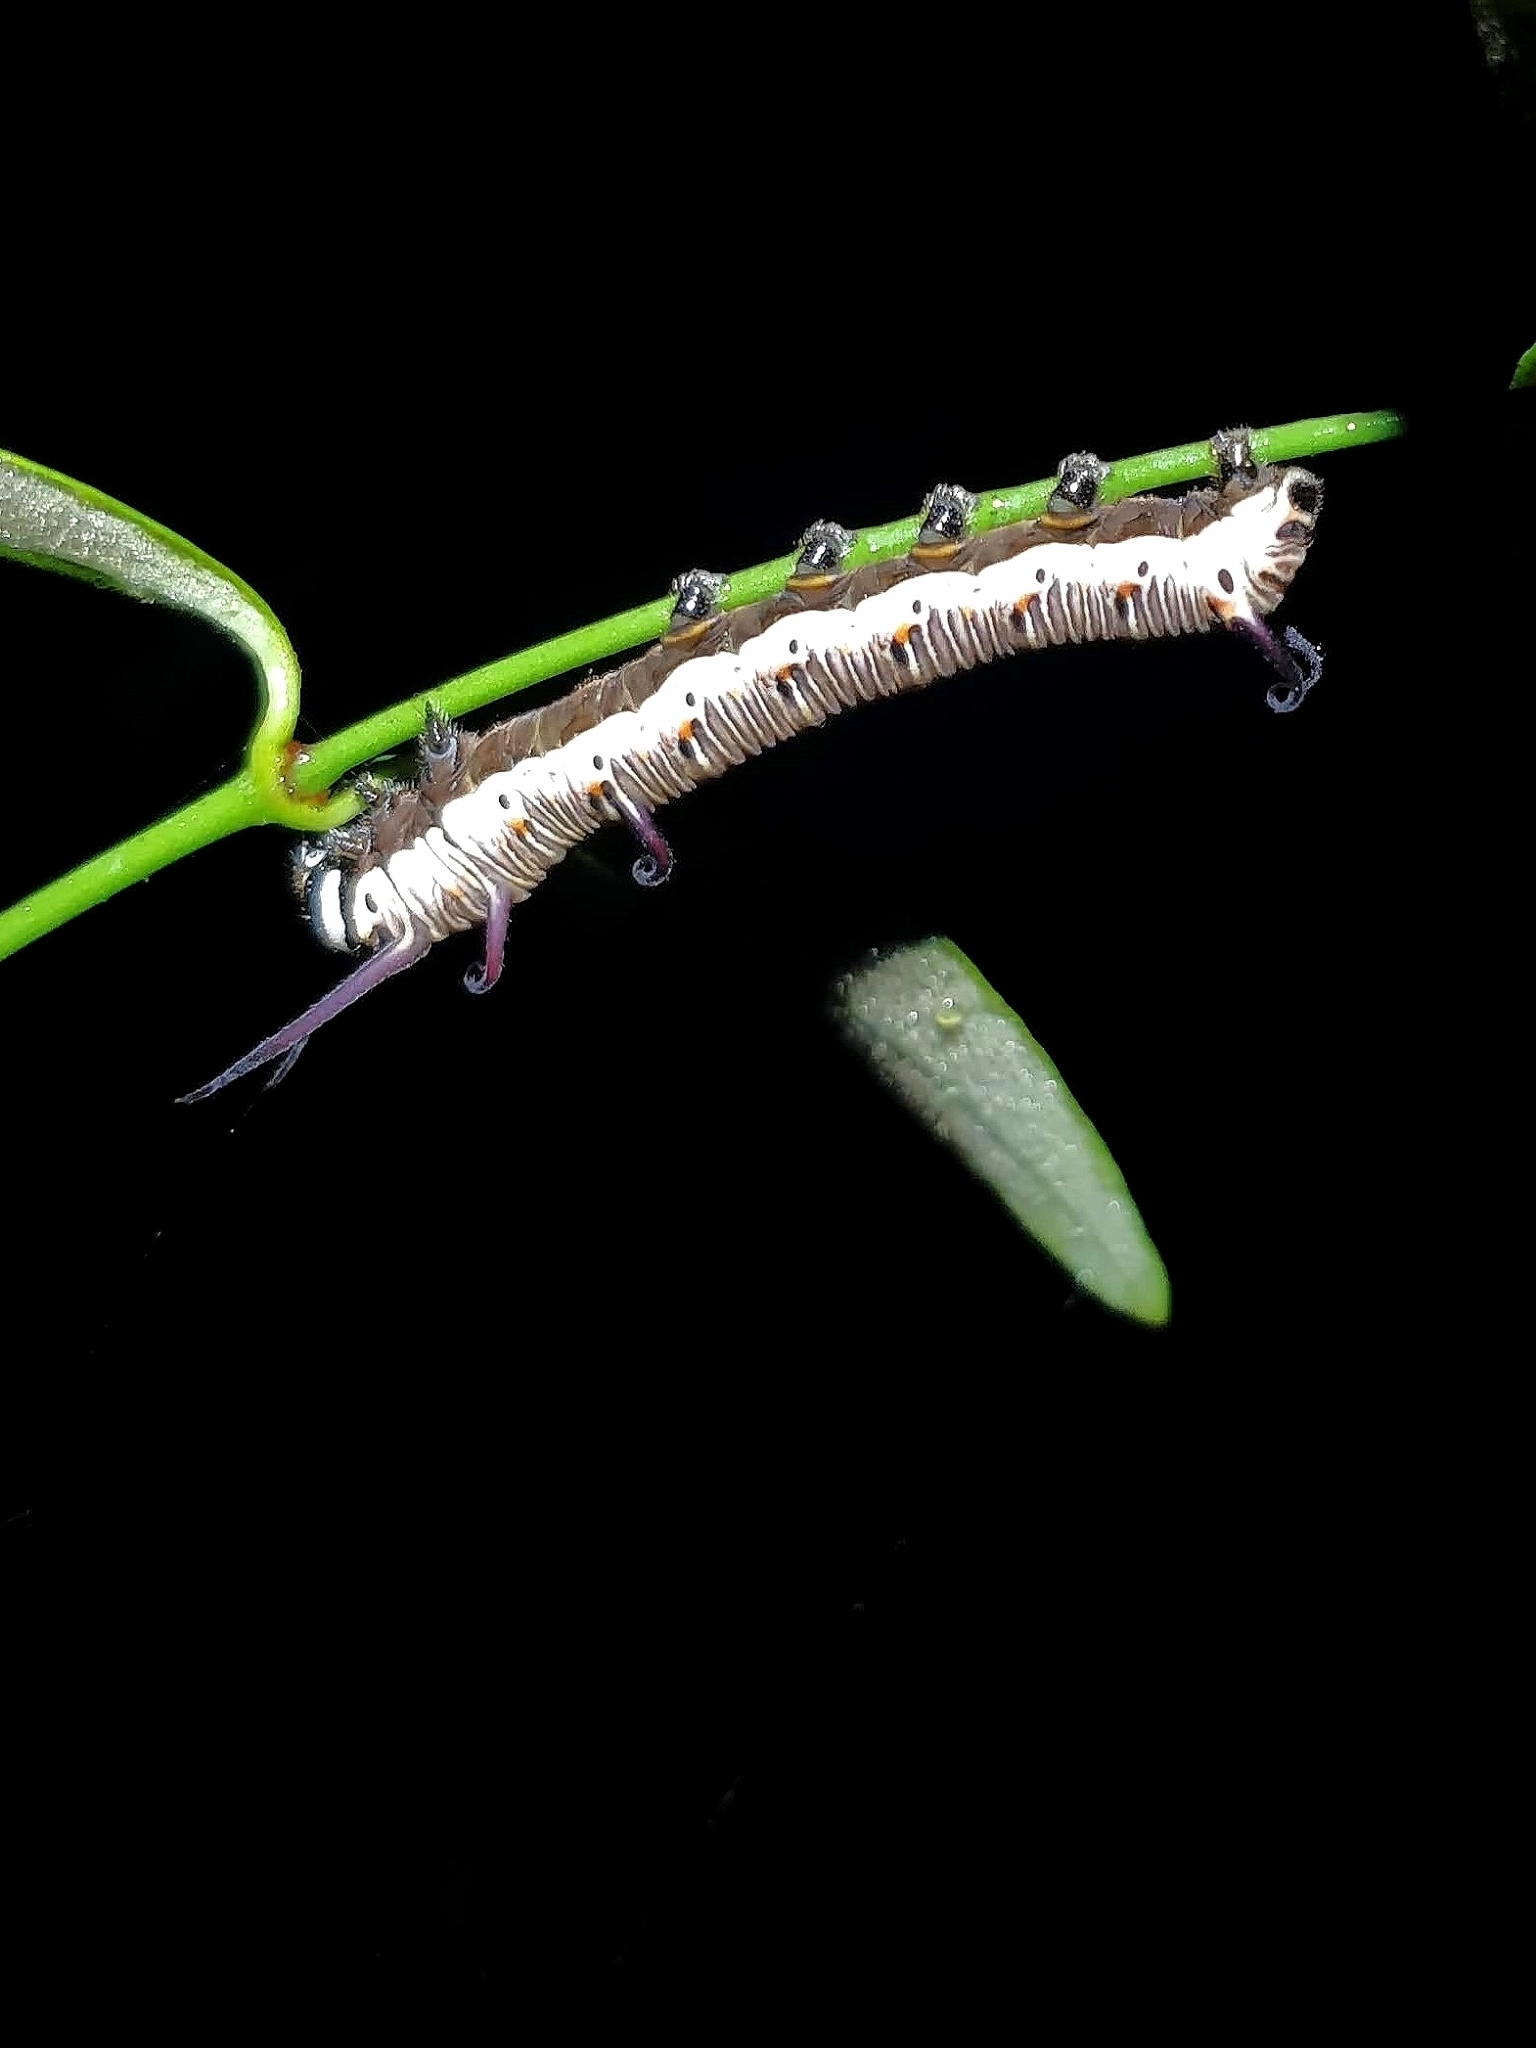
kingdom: Animalia
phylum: Arthropoda
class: Insecta
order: Lepidoptera
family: Nymphalidae
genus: Euploea
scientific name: Euploea core
